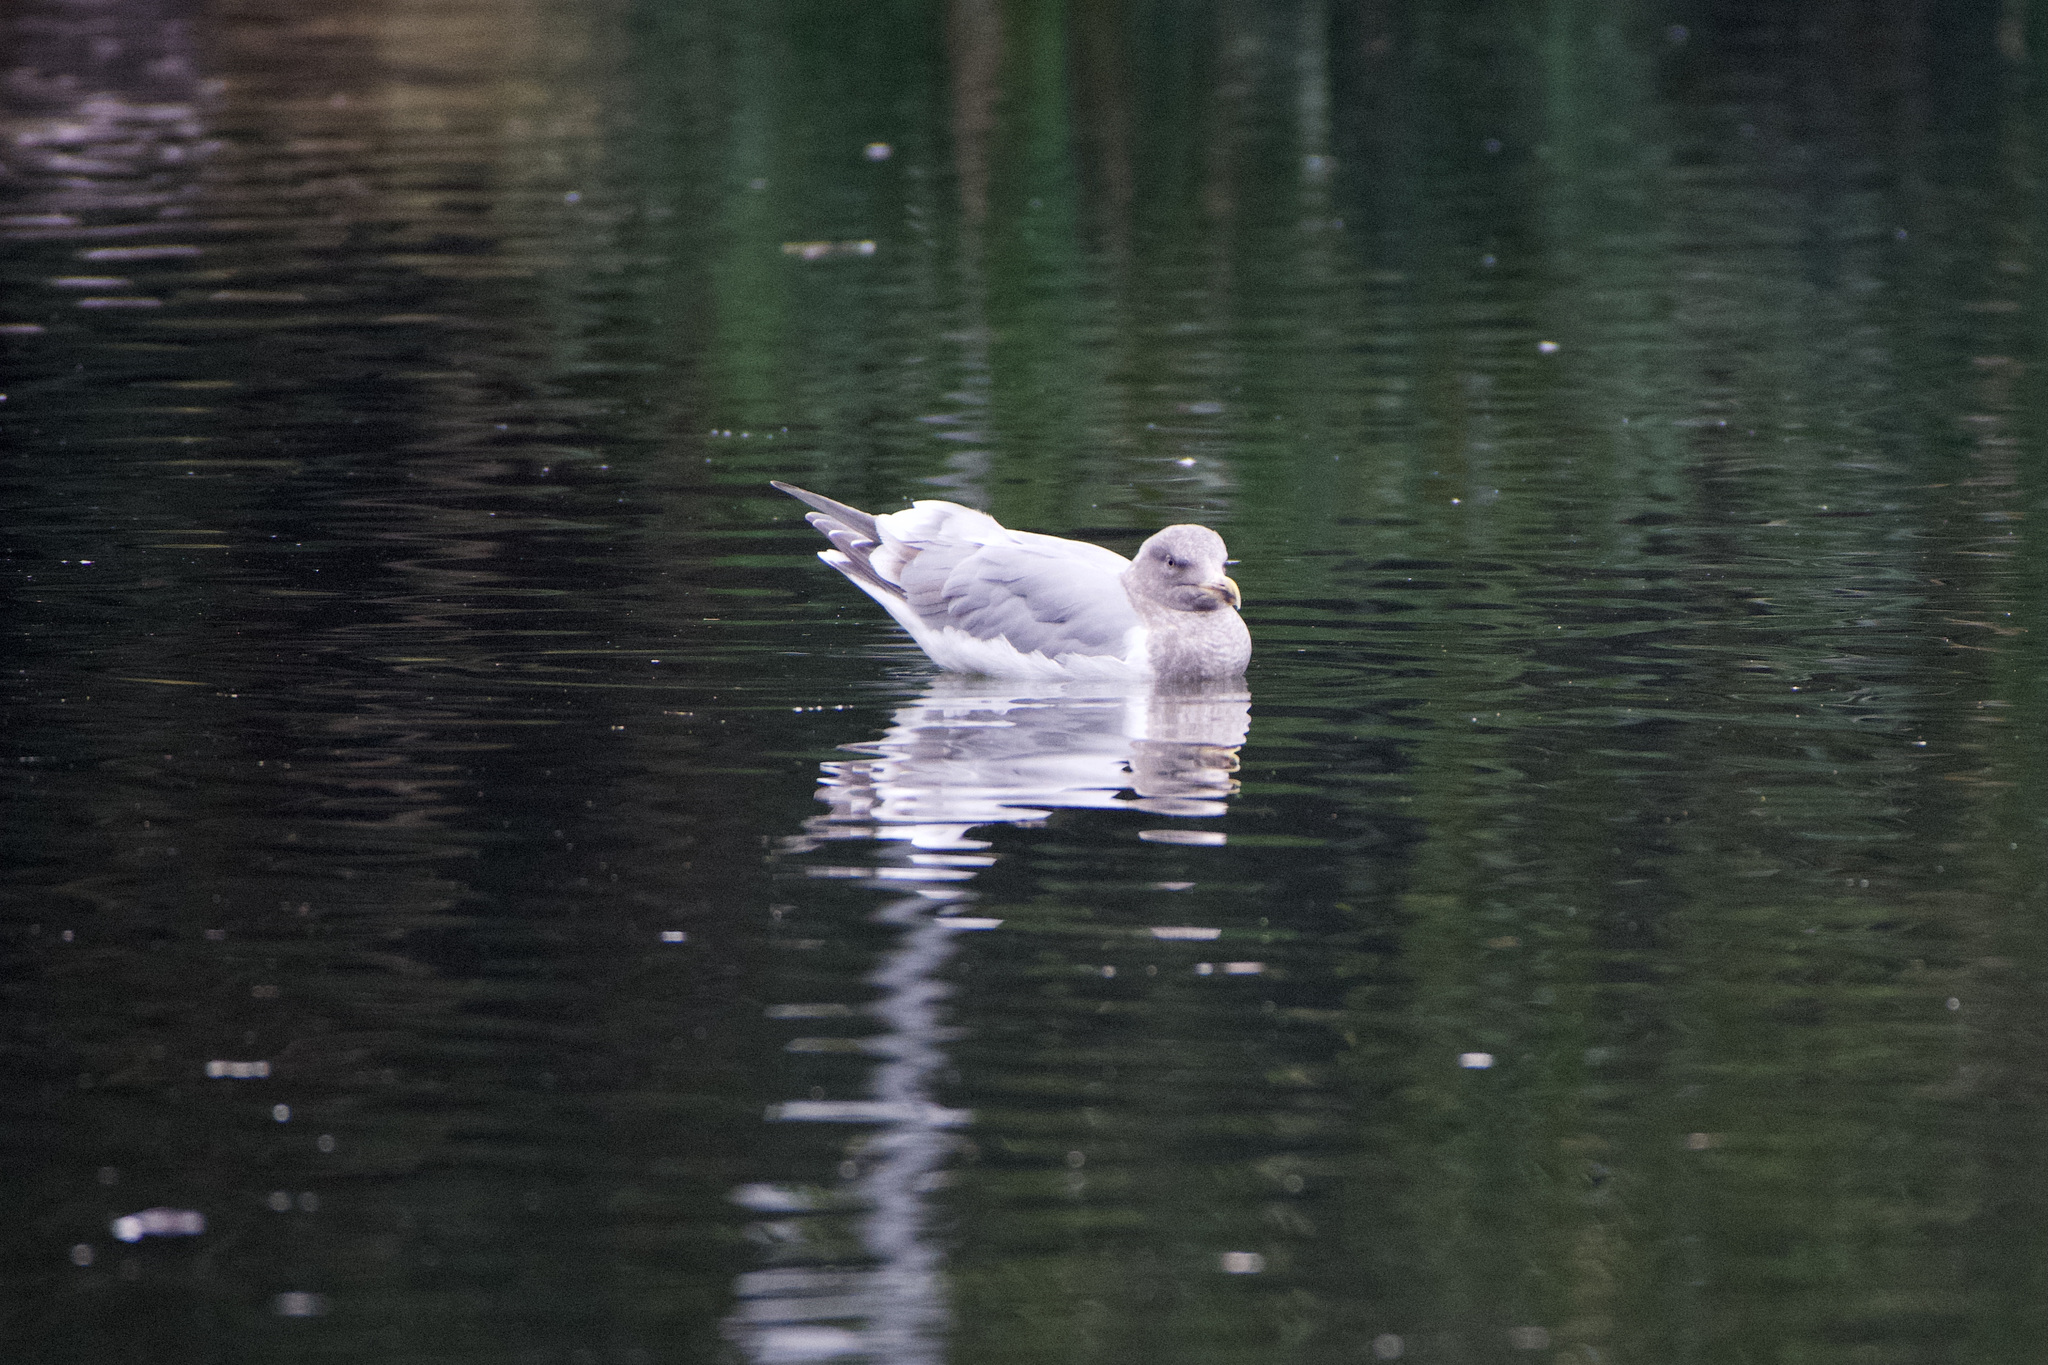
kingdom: Animalia
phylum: Chordata
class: Aves
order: Charadriiformes
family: Laridae
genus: Larus
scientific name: Larus
